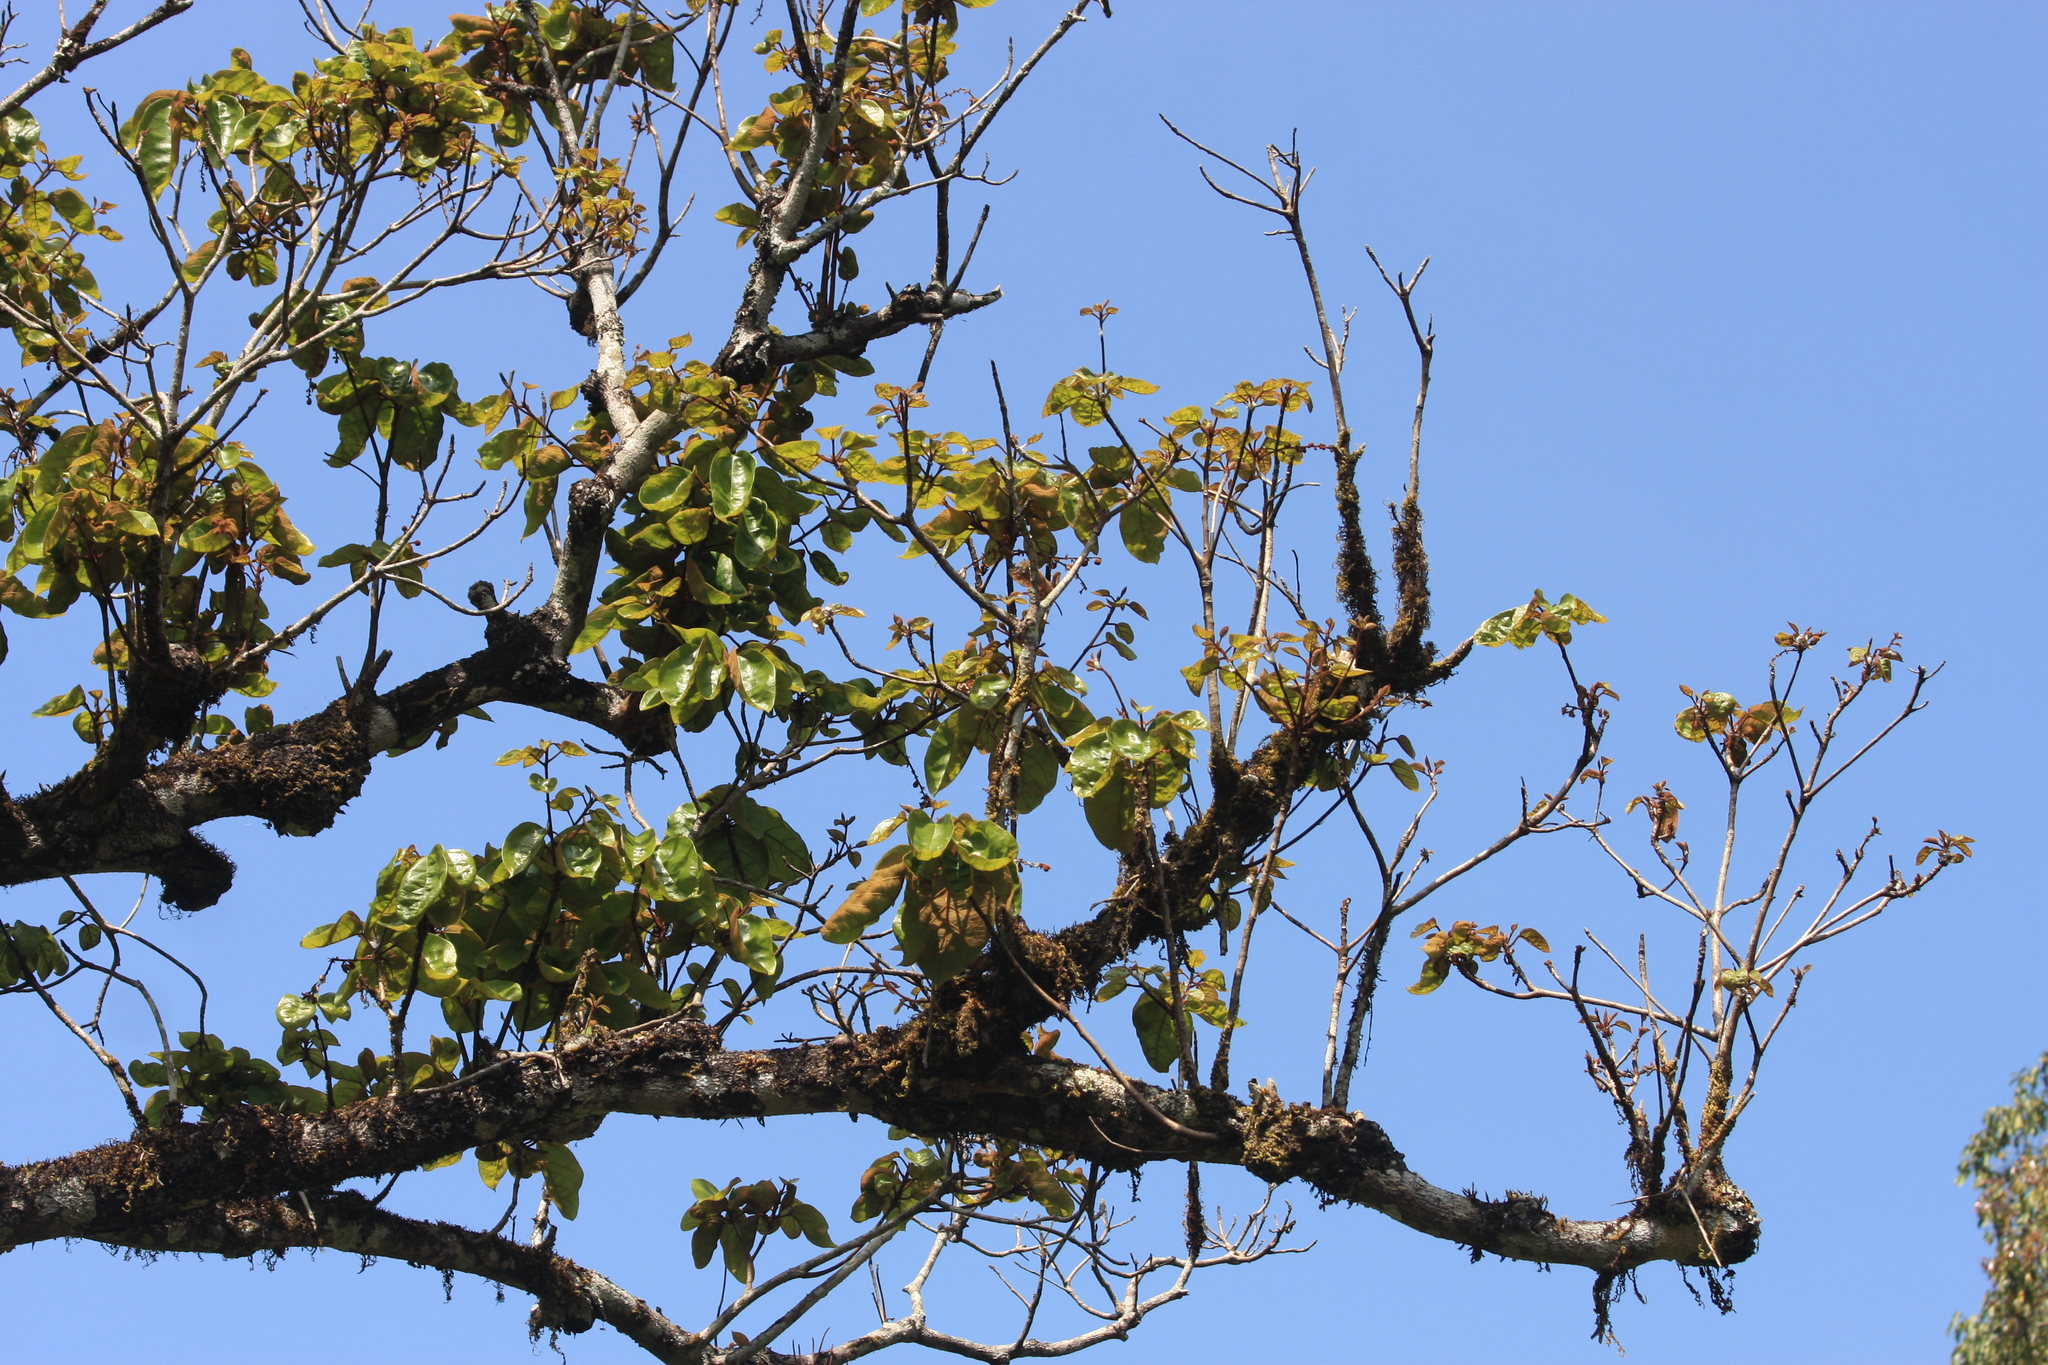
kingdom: Plantae
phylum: Tracheophyta
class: Magnoliopsida
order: Malvales
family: Malvaceae
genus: Sterculia
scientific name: Sterculia guttata
